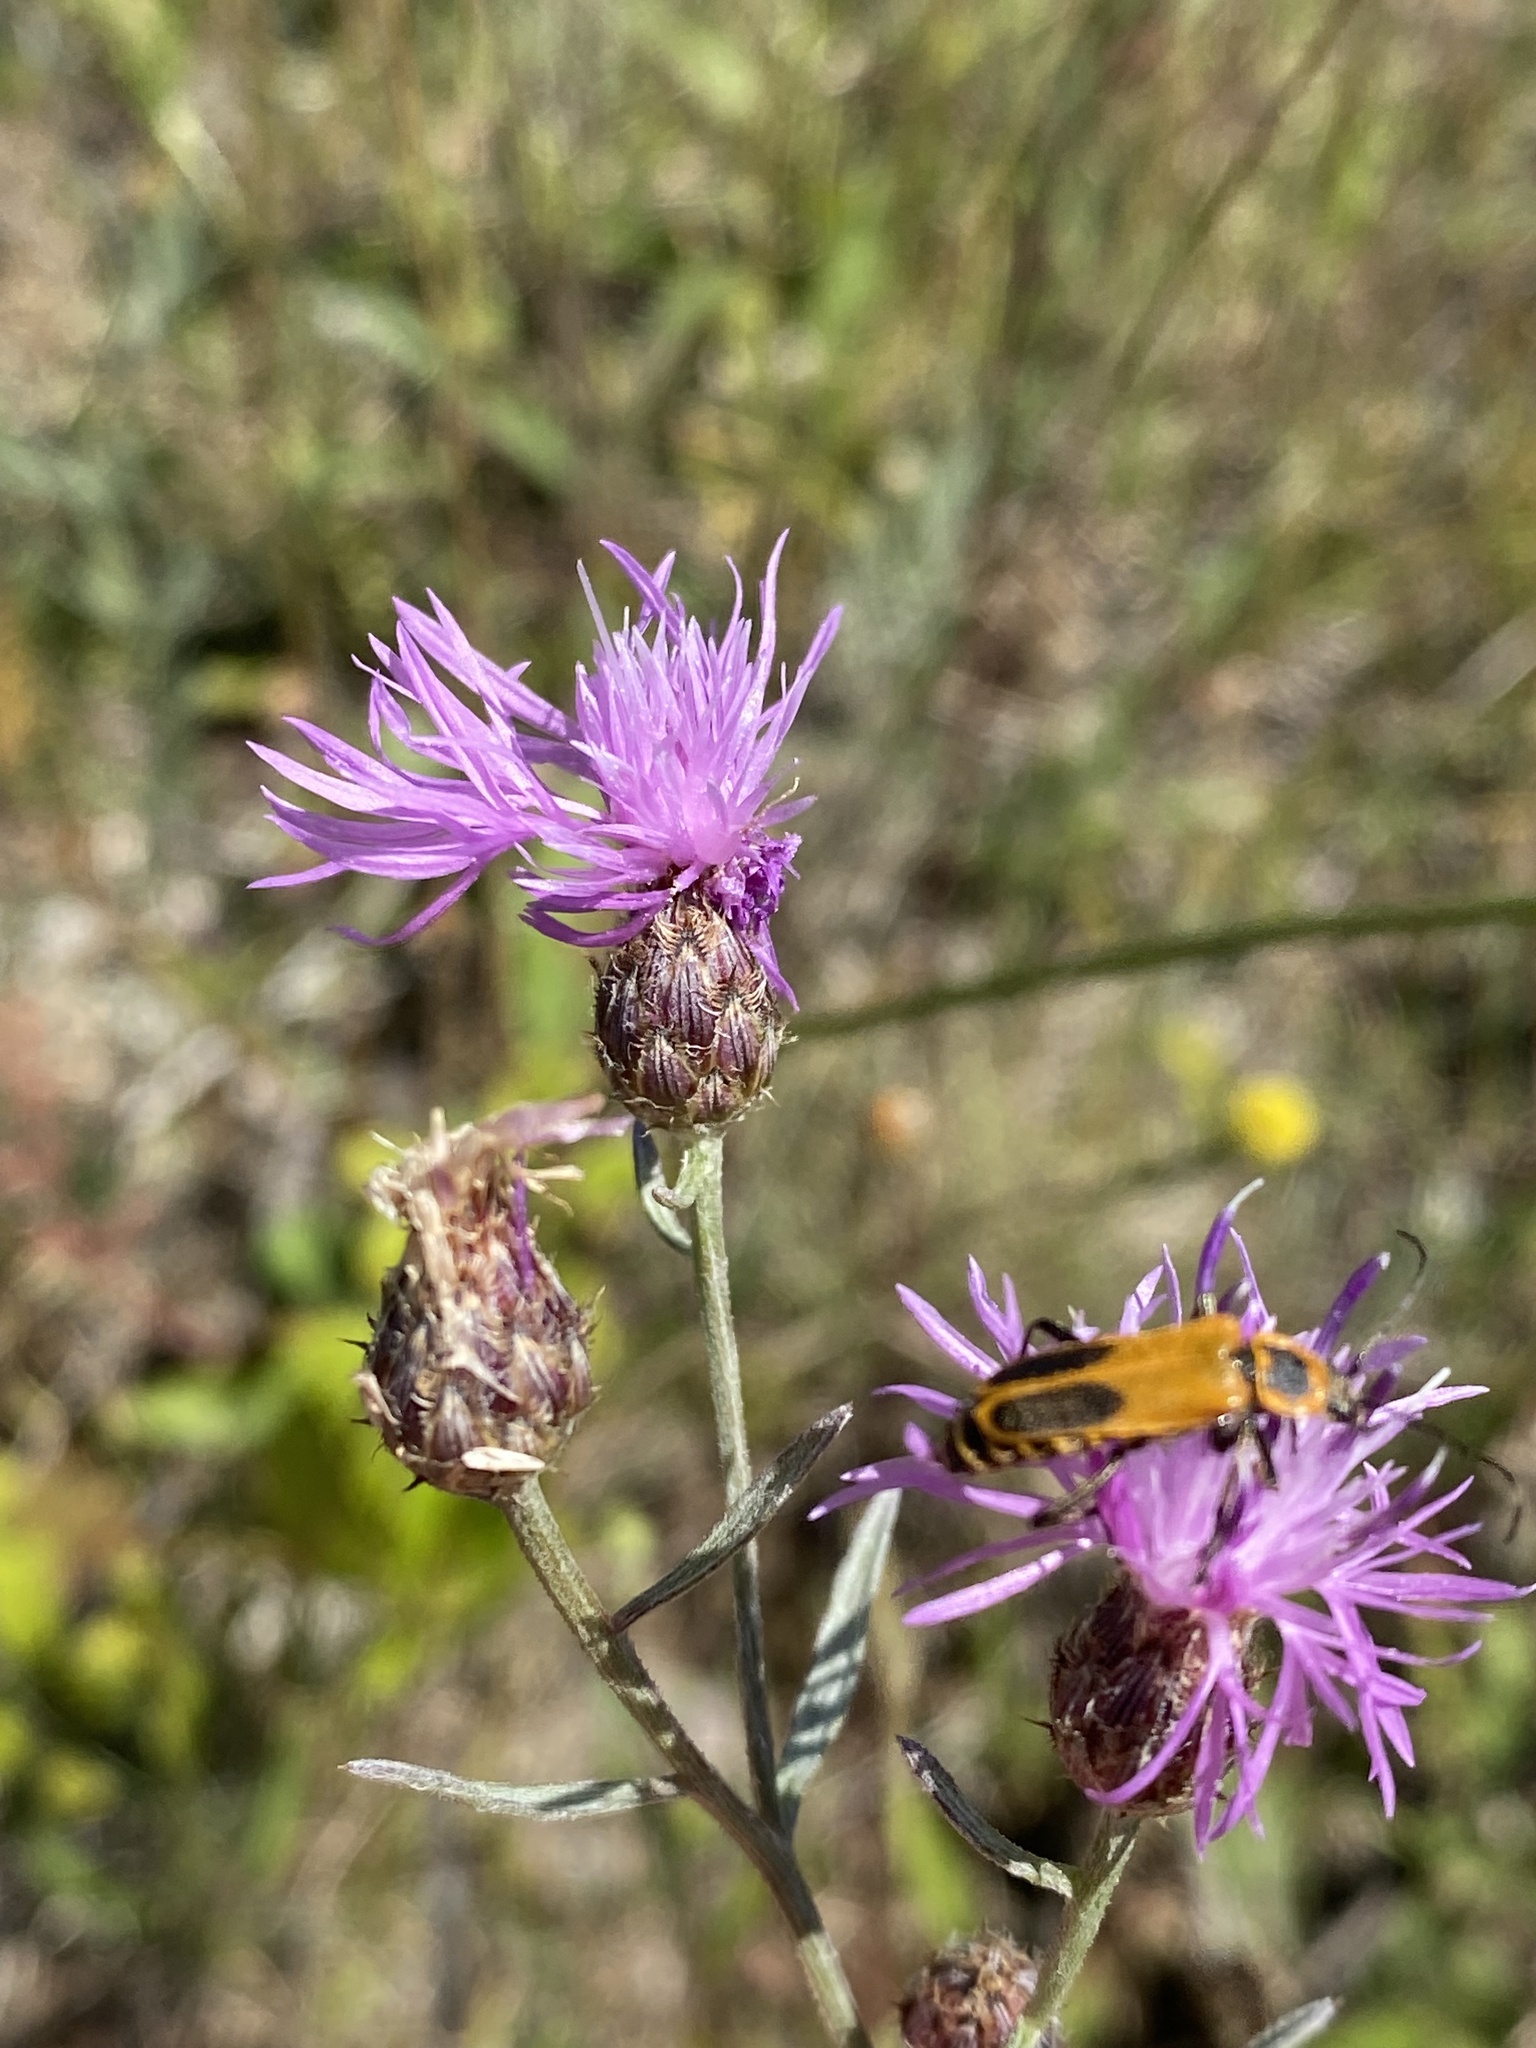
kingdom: Animalia
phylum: Arthropoda
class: Insecta
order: Coleoptera
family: Cantharidae
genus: Chauliognathus
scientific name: Chauliognathus pensylvanicus
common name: Goldenrod soldier beetle
